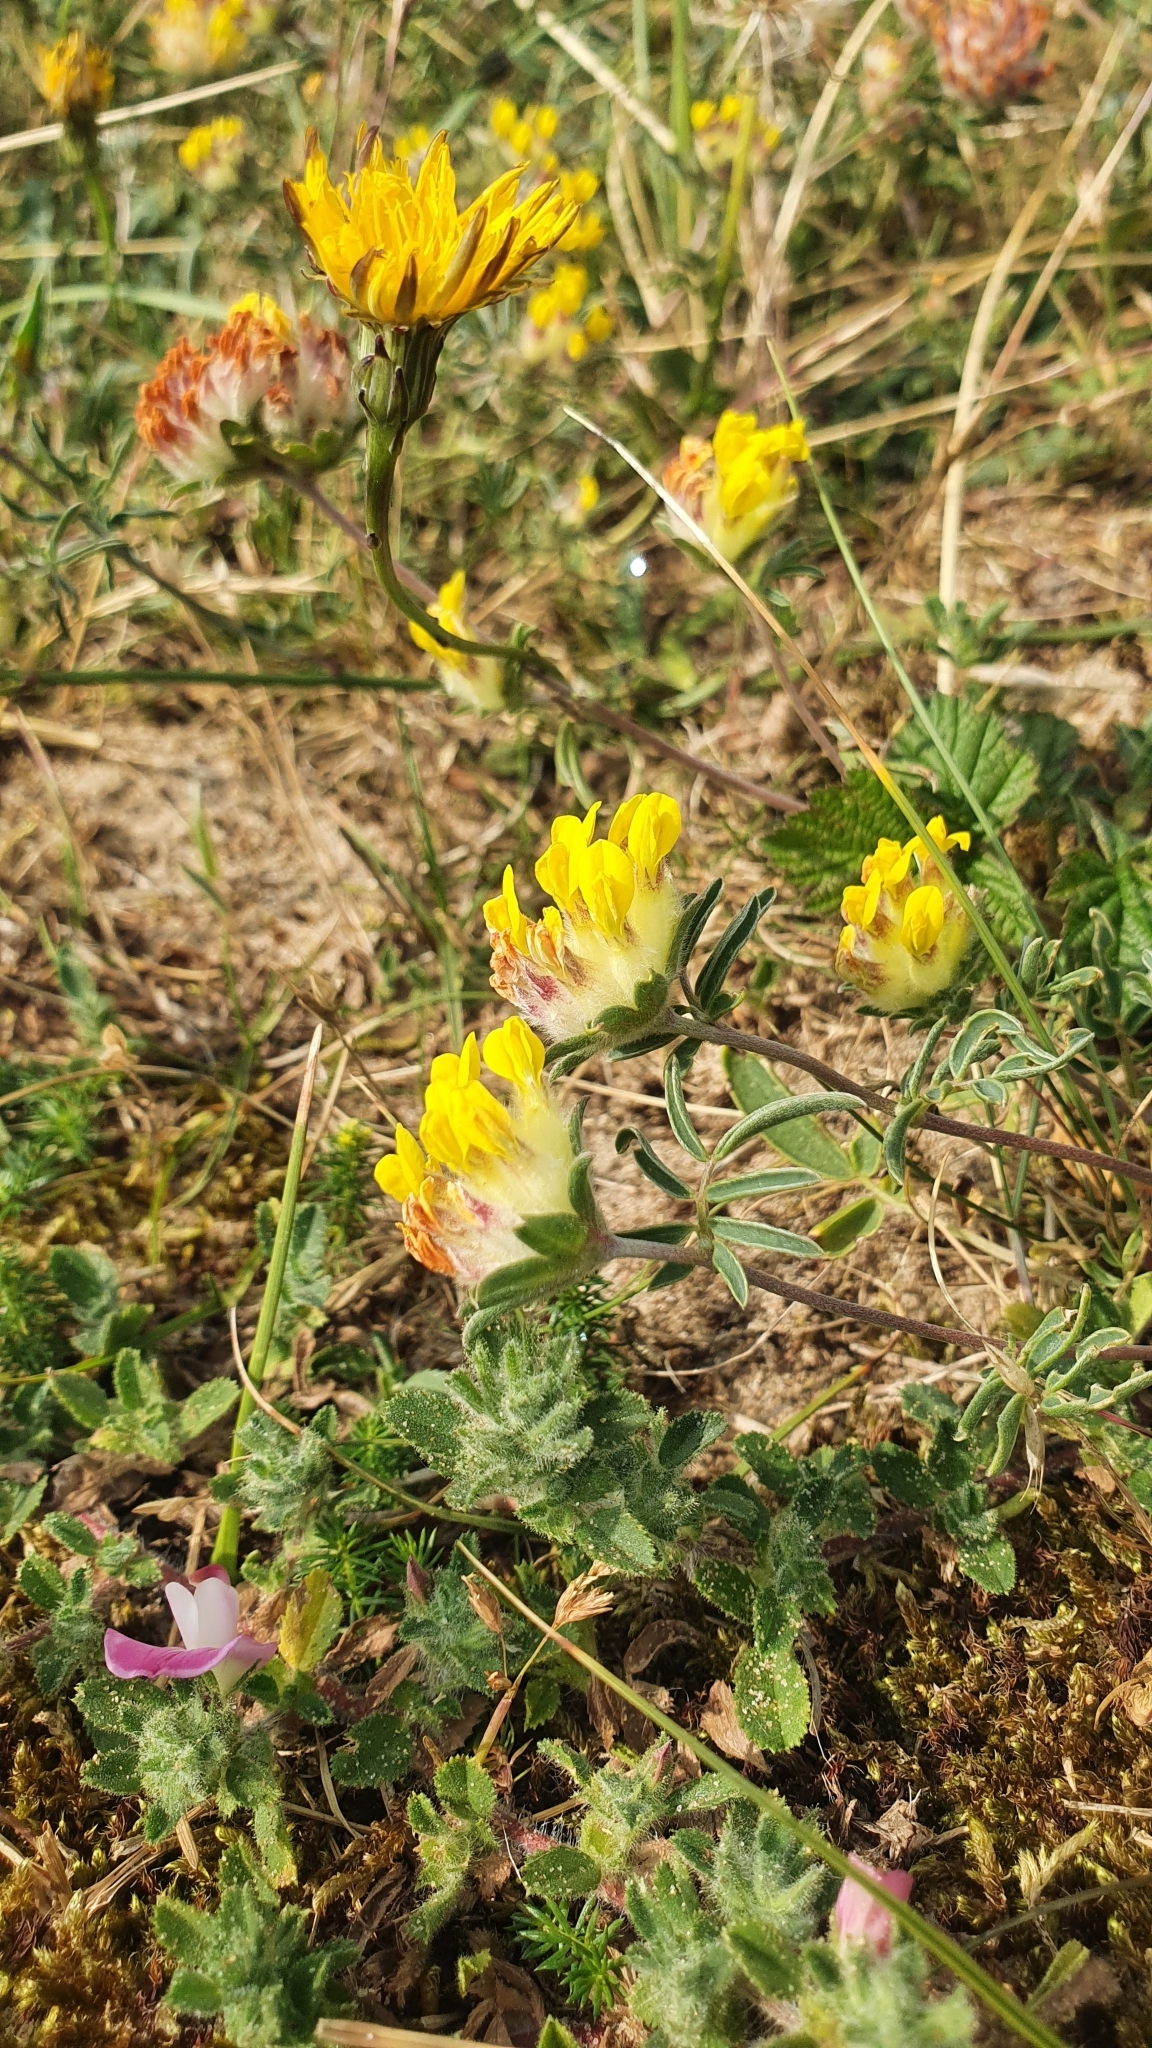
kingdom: Plantae
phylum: Tracheophyta
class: Magnoliopsida
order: Fabales
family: Fabaceae
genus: Anthyllis
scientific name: Anthyllis vulneraria
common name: Kidney vetch
